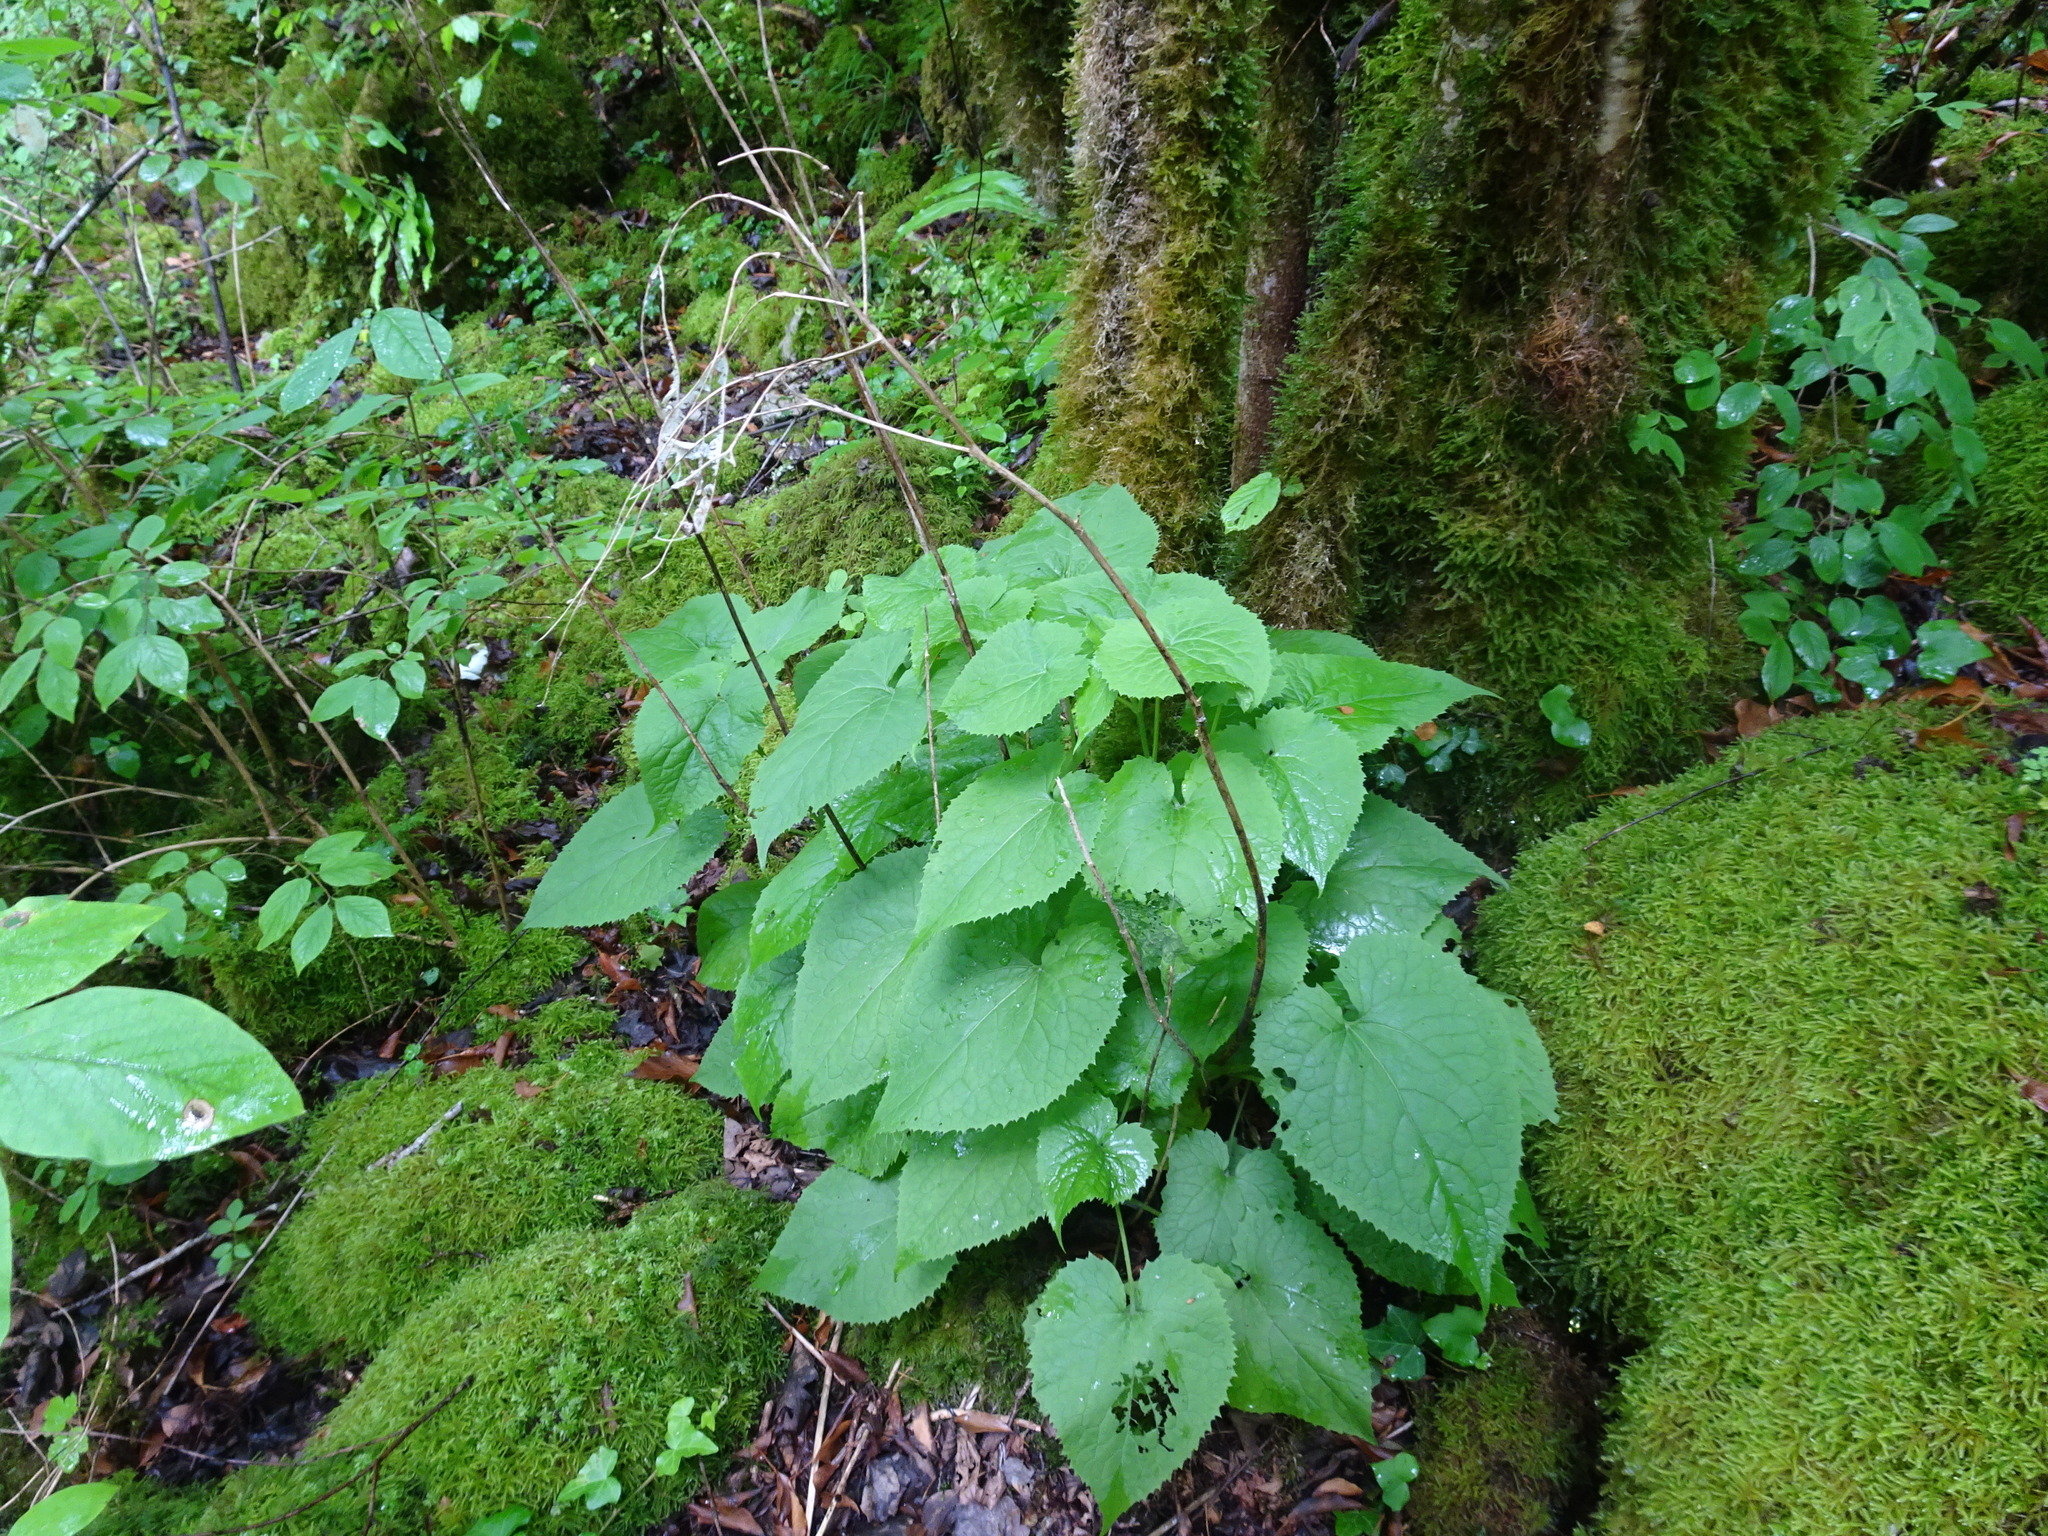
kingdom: Plantae
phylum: Tracheophyta
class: Magnoliopsida
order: Brassicales
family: Brassicaceae
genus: Lunaria
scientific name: Lunaria rediviva
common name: Perennial honesty
